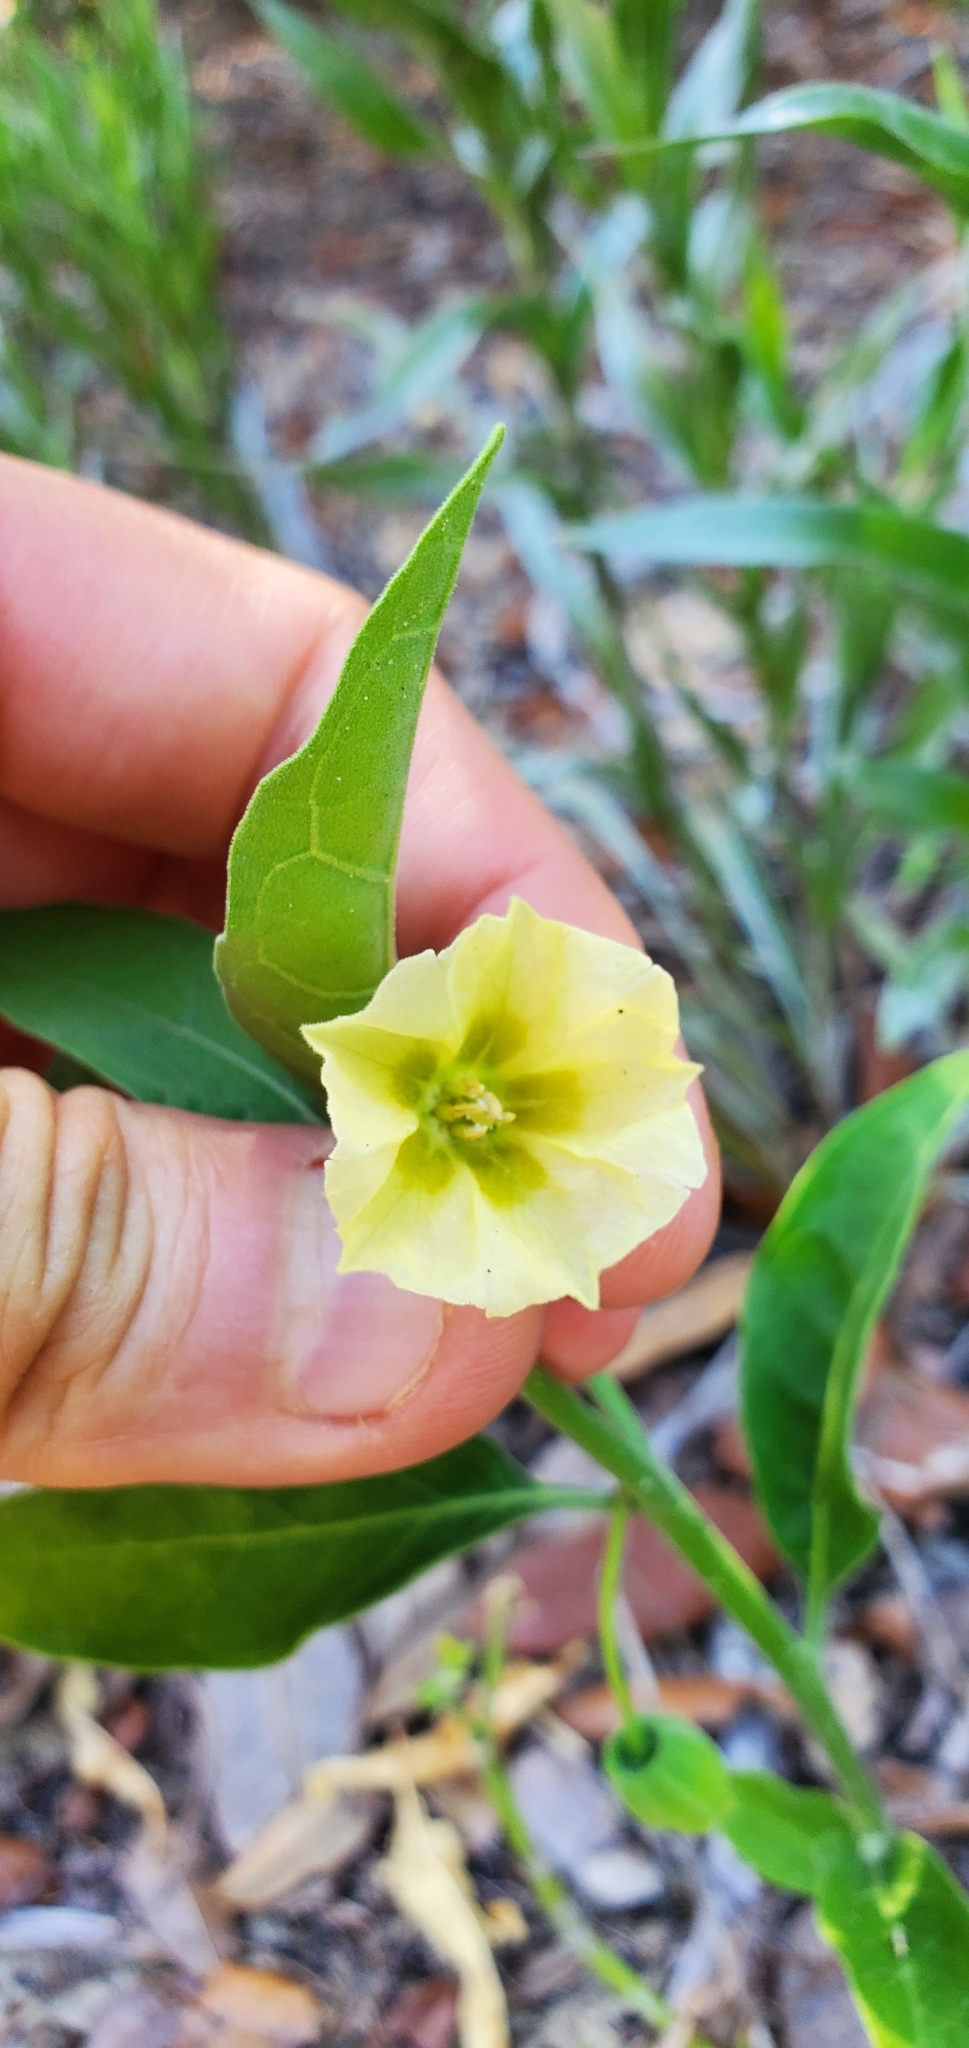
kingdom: Plantae
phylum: Tracheophyta
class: Magnoliopsida
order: Solanales
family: Solanaceae
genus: Physalis
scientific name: Physalis walteri
